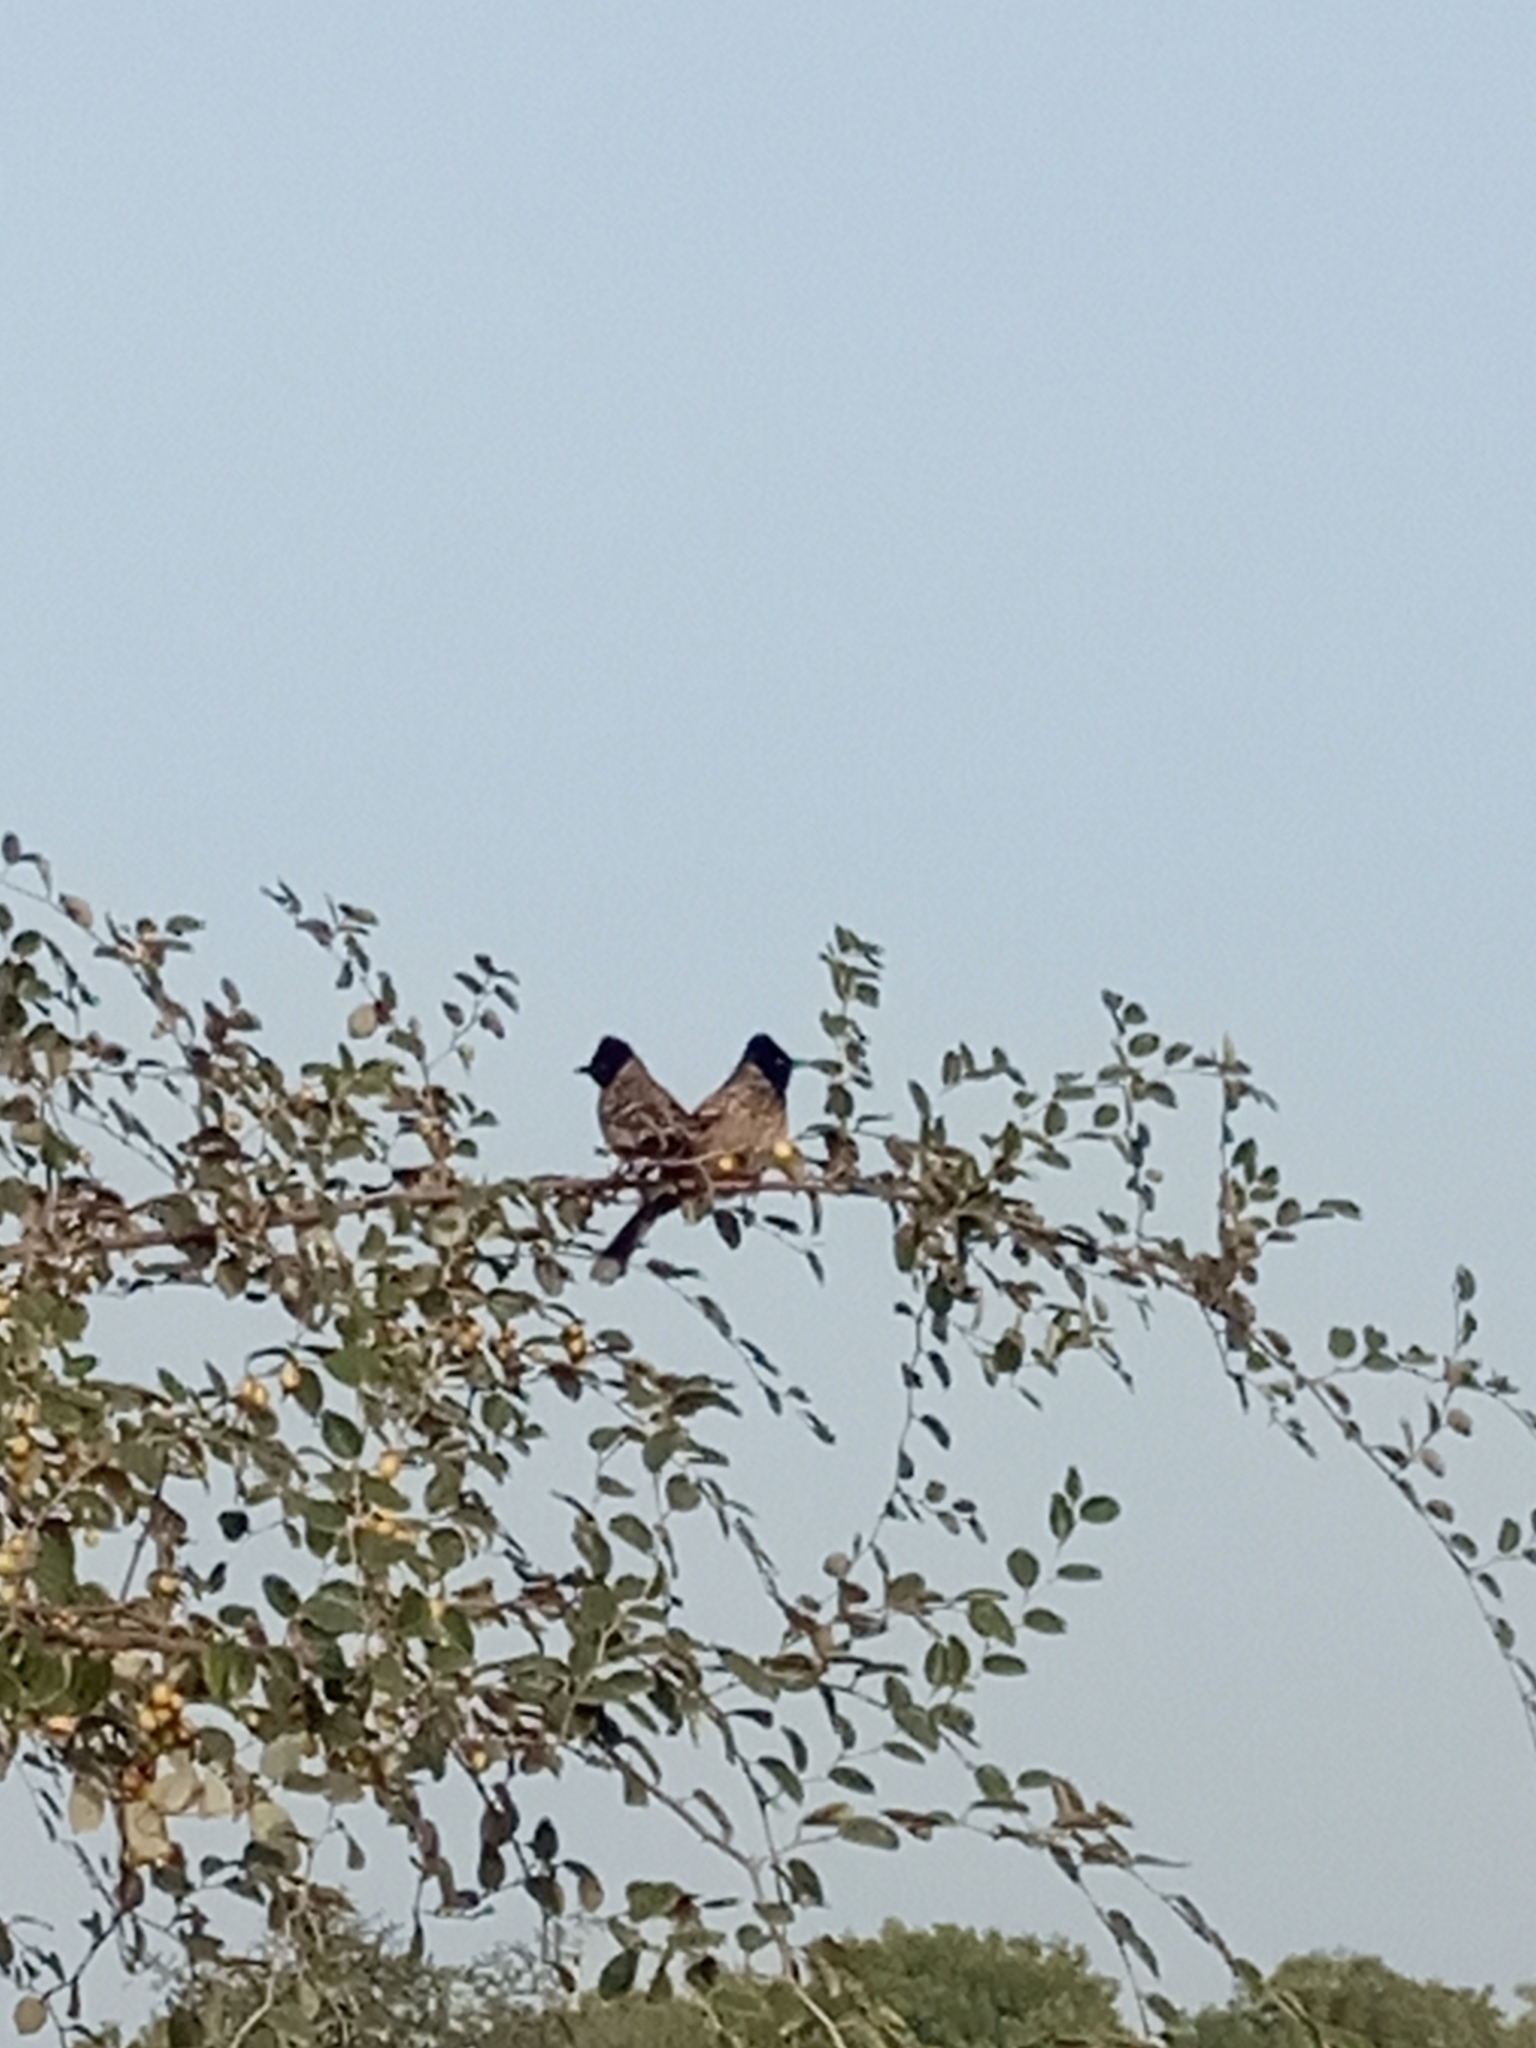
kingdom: Animalia
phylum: Chordata
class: Aves
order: Passeriformes
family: Pycnonotidae
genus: Pycnonotus
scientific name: Pycnonotus cafer
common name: Red-vented bulbul
